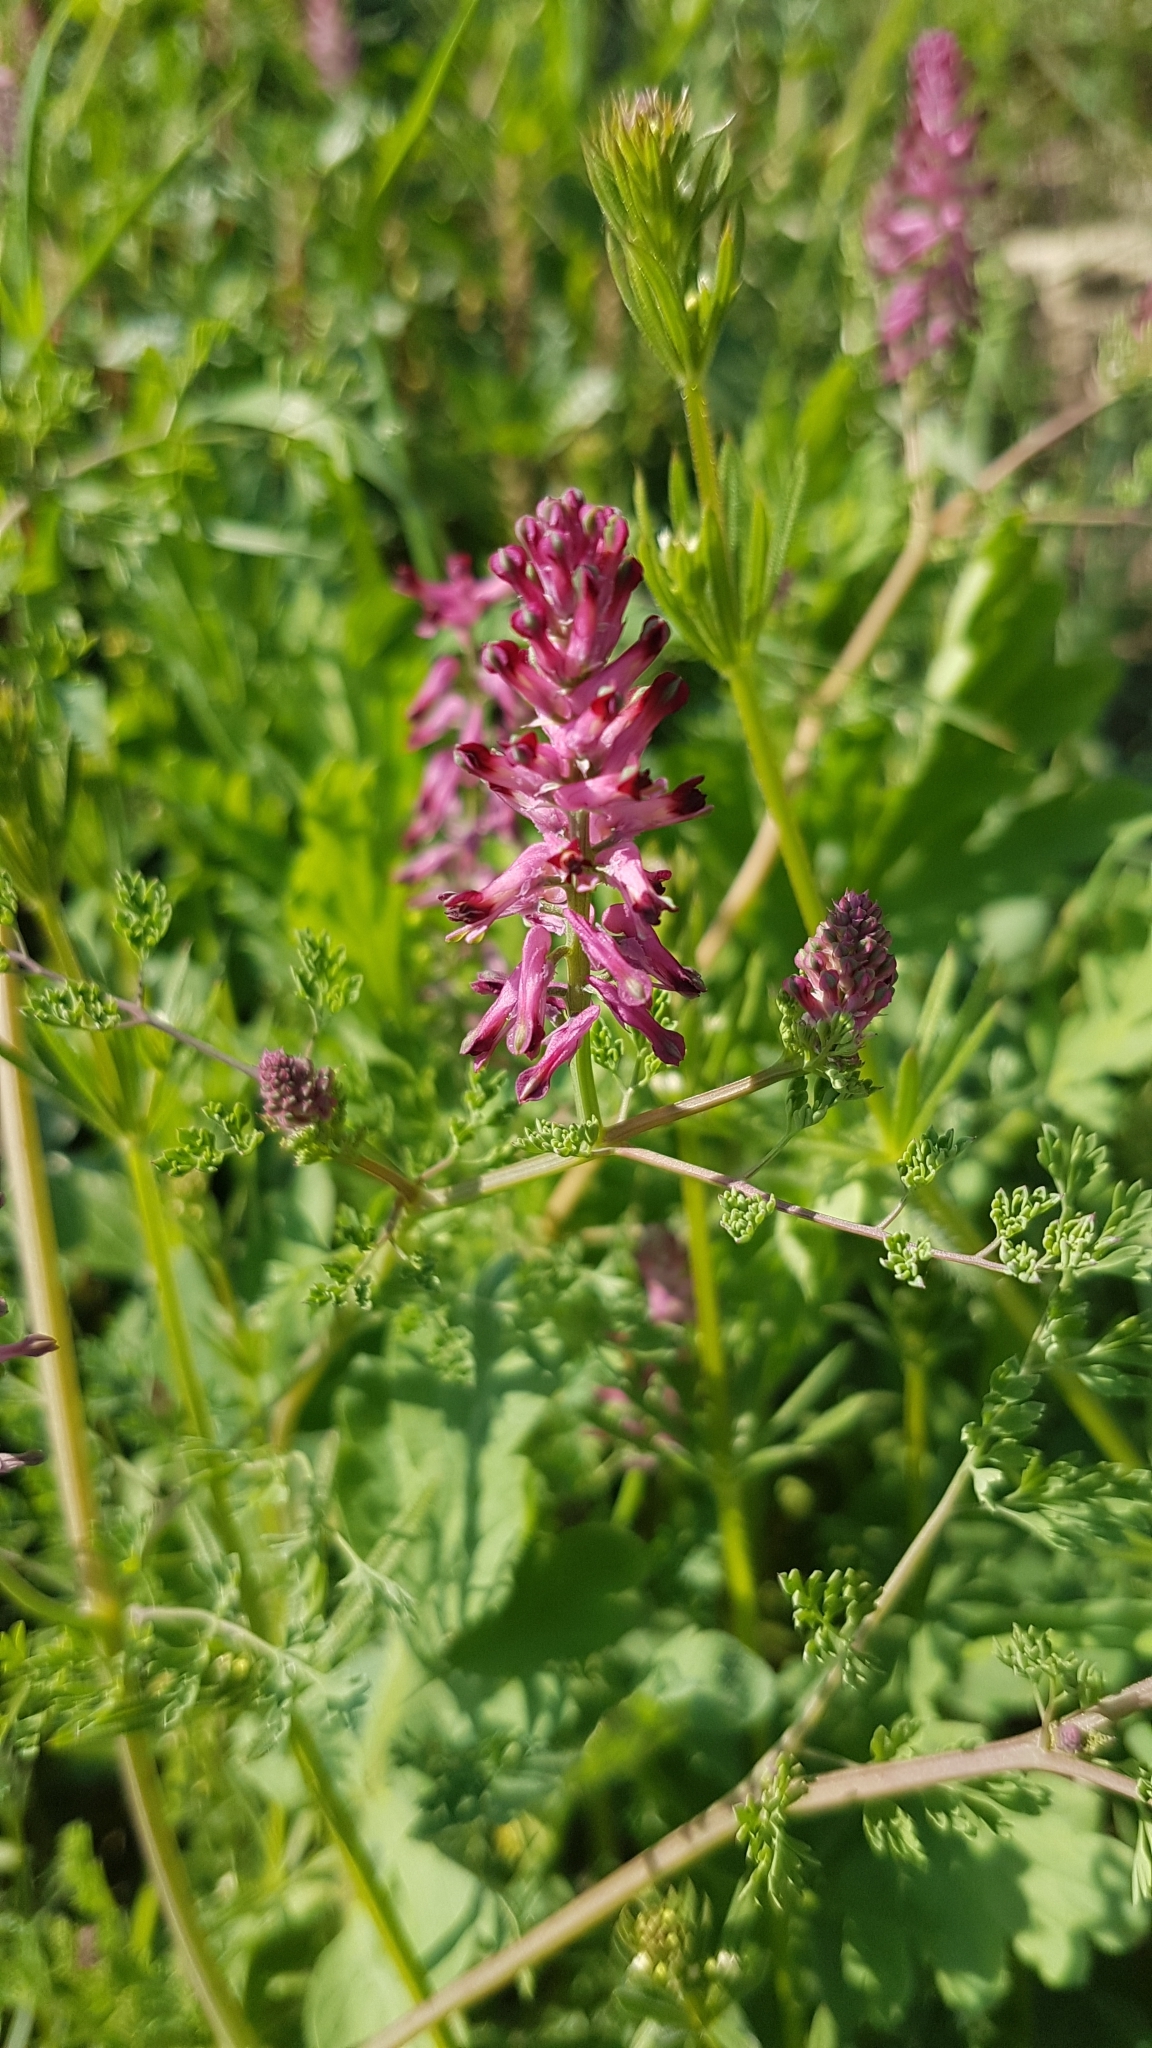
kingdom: Plantae
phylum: Tracheophyta
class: Magnoliopsida
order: Ranunculales
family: Papaveraceae
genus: Fumaria
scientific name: Fumaria officinalis
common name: Common fumitory
